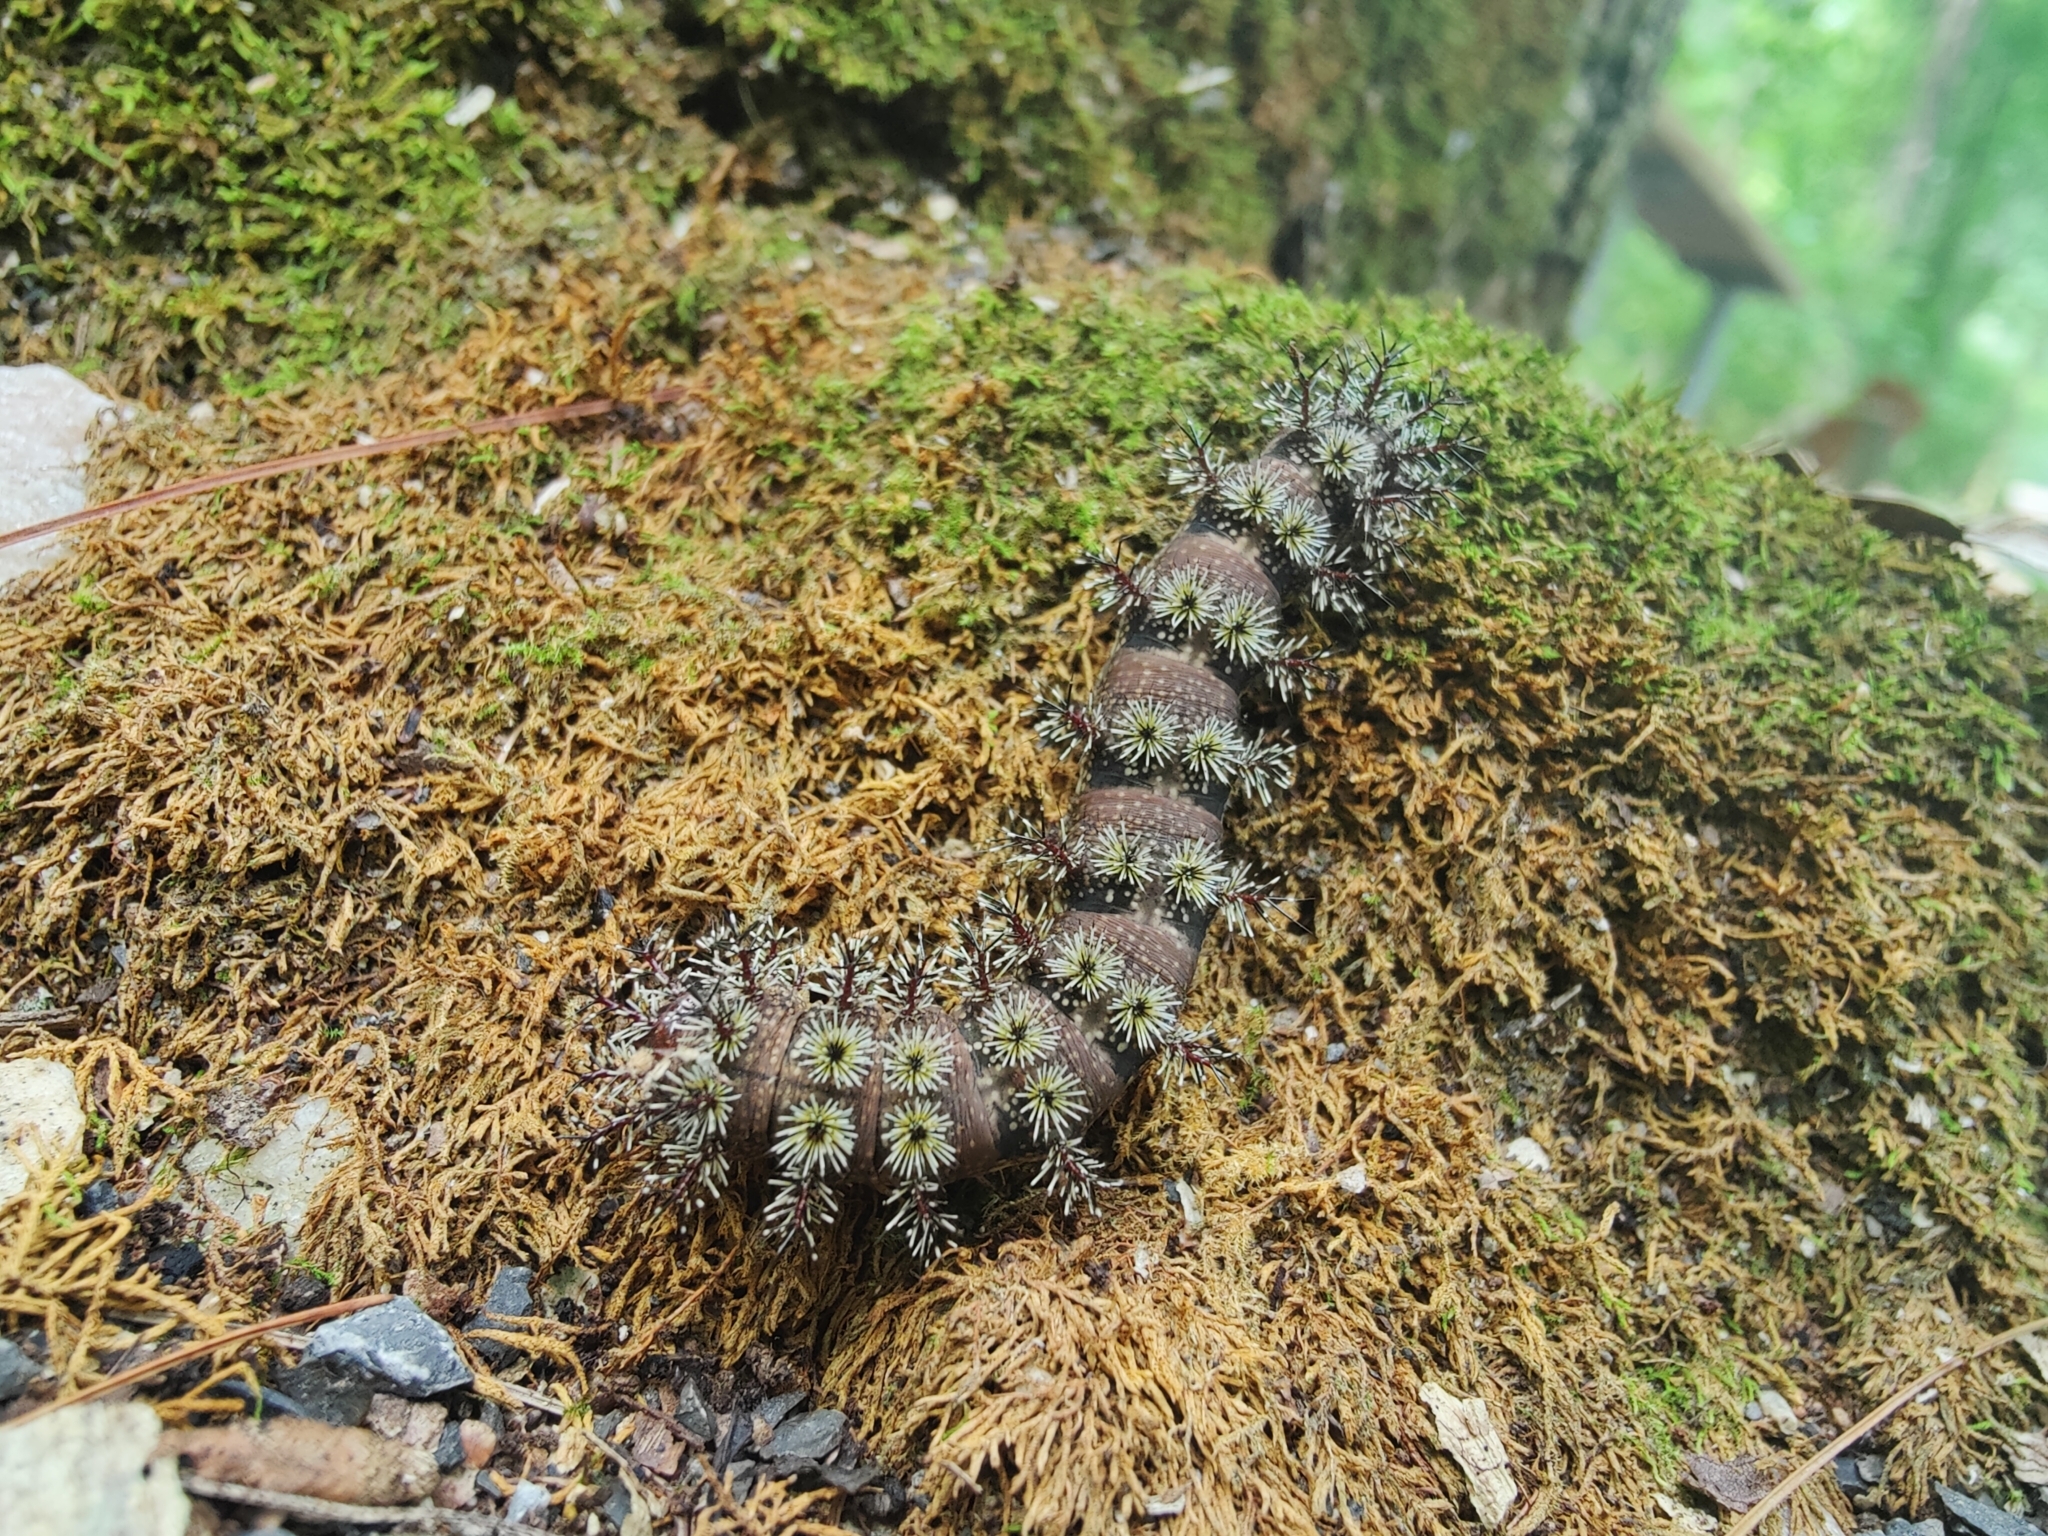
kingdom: Animalia
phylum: Arthropoda
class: Insecta
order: Lepidoptera
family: Saturniidae
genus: Hemileuca
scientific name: Hemileuca maia
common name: Eastern buckmoth
